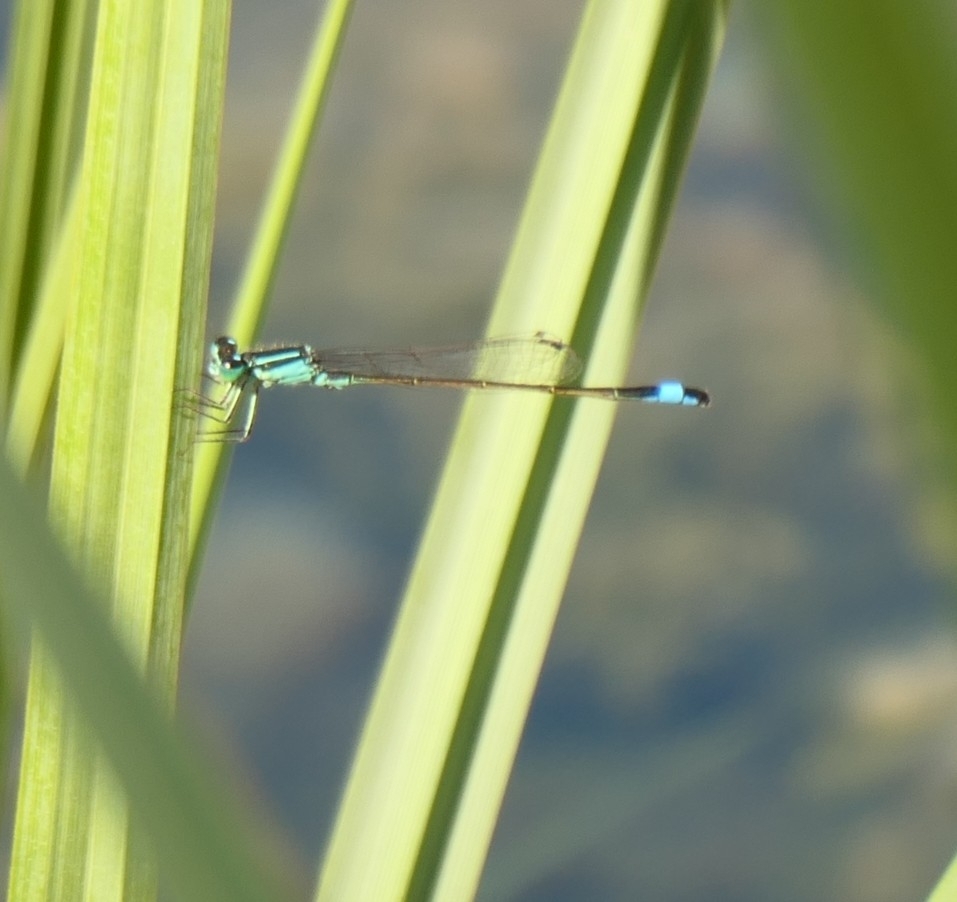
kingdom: Animalia
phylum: Arthropoda
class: Insecta
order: Odonata
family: Coenagrionidae
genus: Ischnura
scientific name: Ischnura elegans
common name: Blue-tailed damselfly
